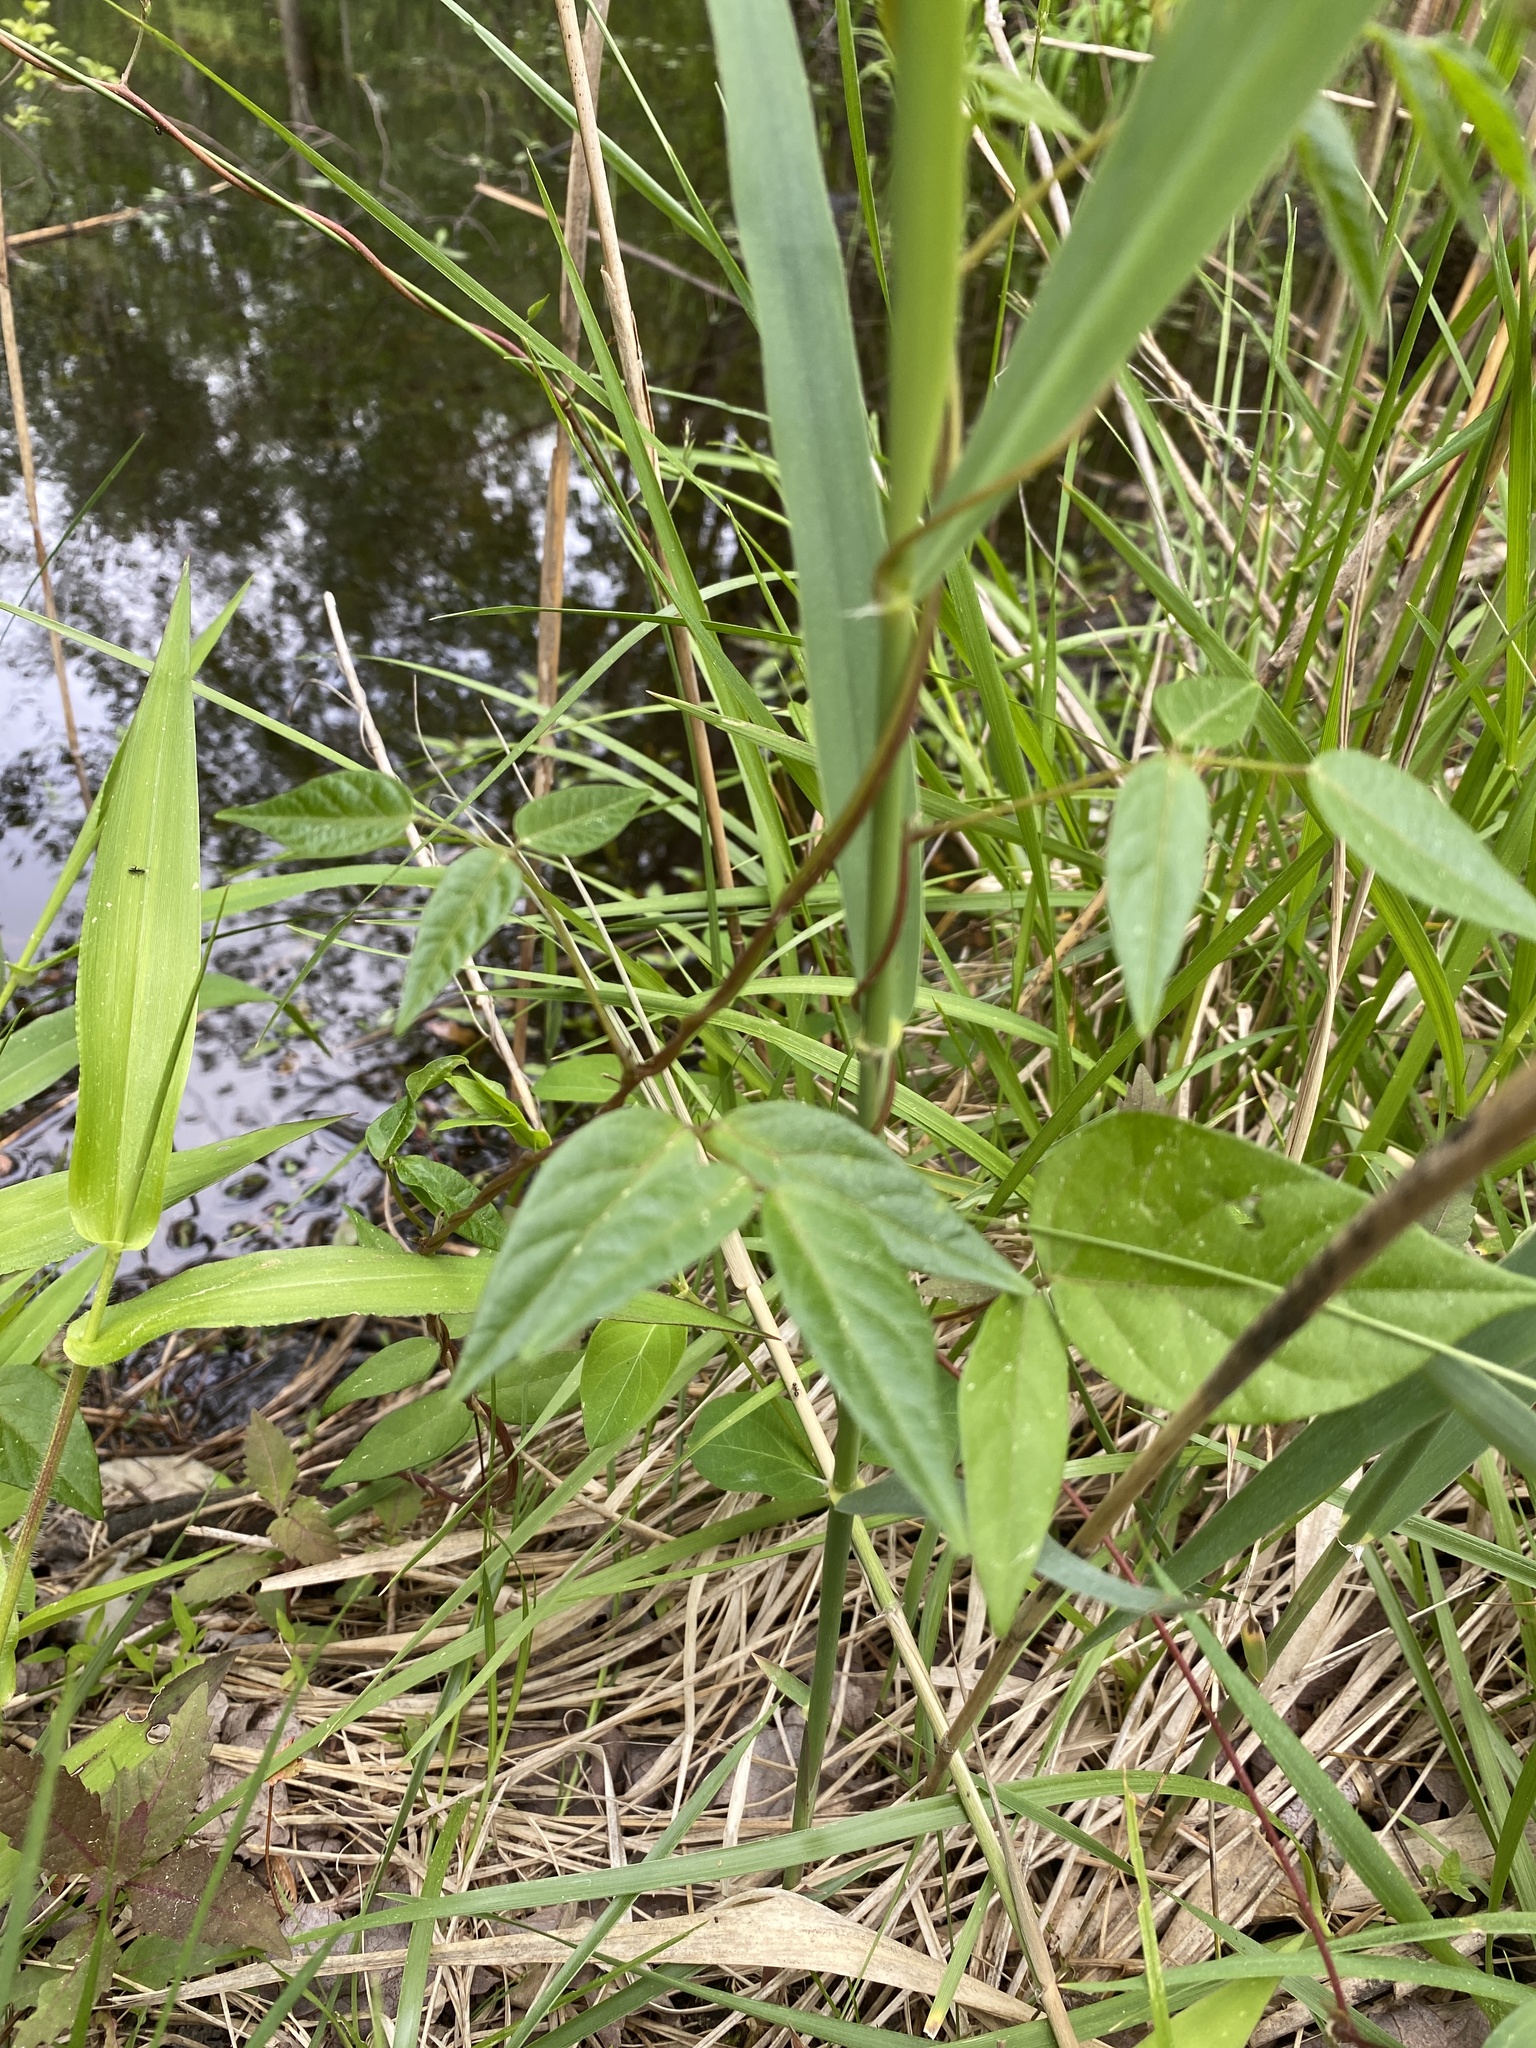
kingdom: Plantae
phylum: Tracheophyta
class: Magnoliopsida
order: Fabales
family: Fabaceae
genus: Apios
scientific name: Apios americana
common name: American potato-bean
